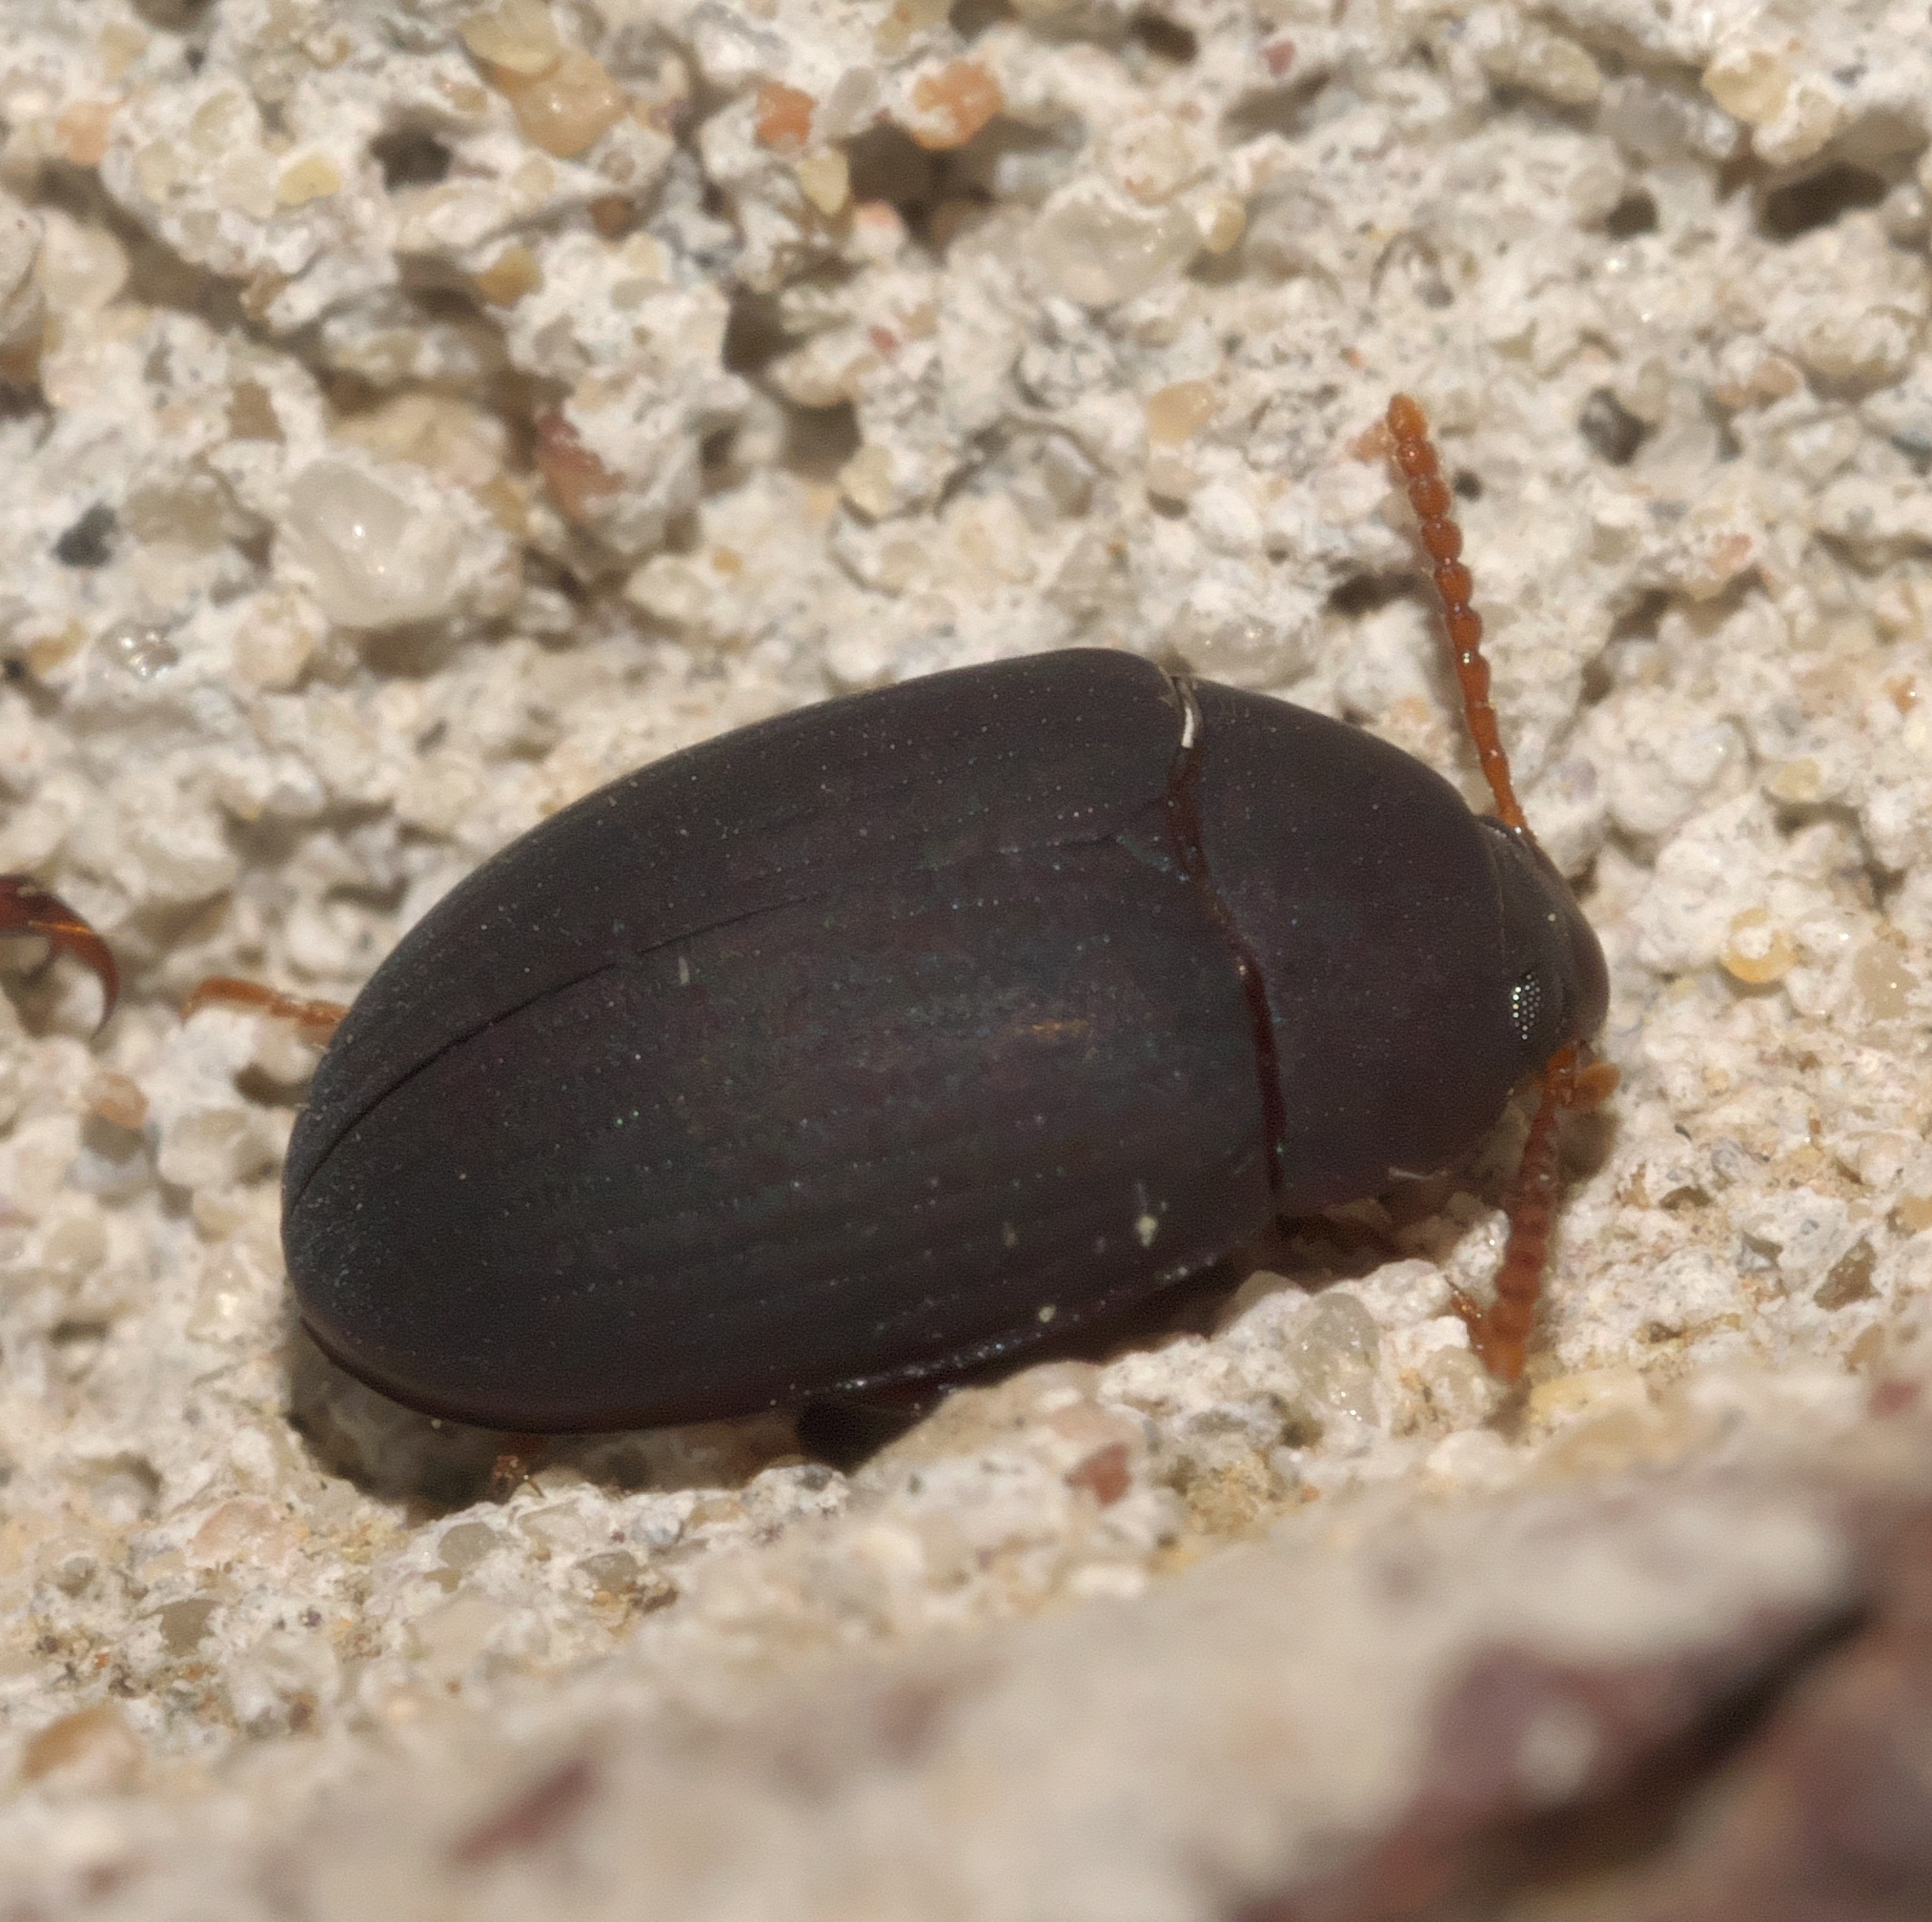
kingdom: Animalia
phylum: Arthropoda
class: Insecta
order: Coleoptera
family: Tenebrionidae
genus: Platydema
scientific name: Platydema ruficornis
